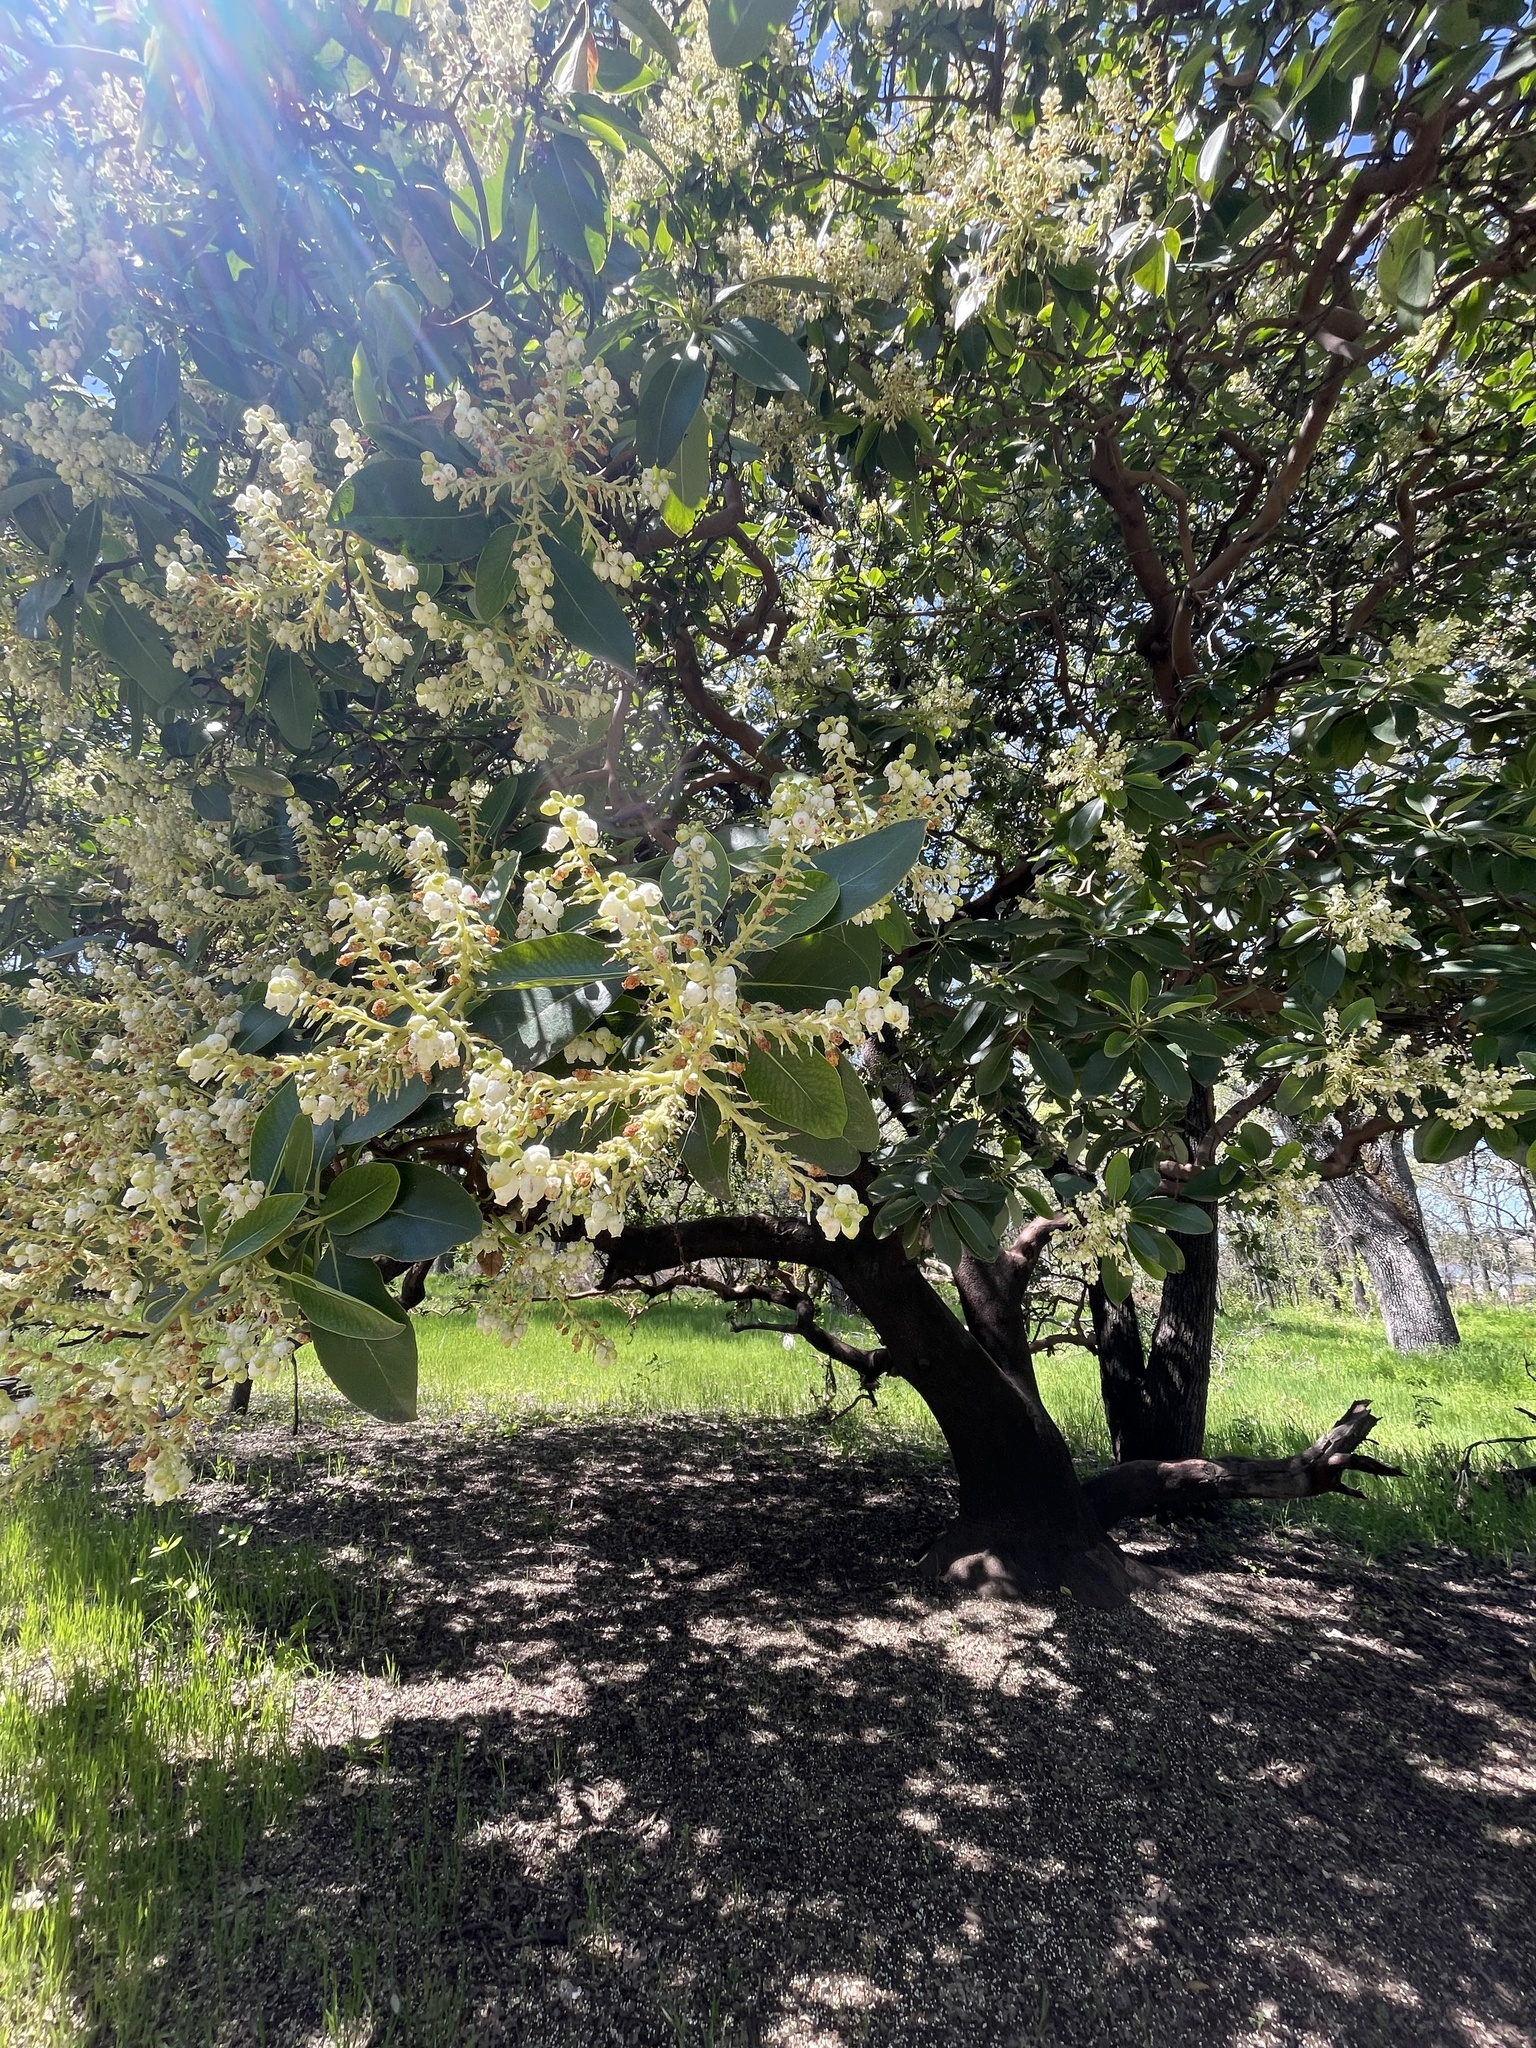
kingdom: Plantae
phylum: Tracheophyta
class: Magnoliopsida
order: Ericales
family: Ericaceae
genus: Arbutus
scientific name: Arbutus menziesii
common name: Pacific madrone
